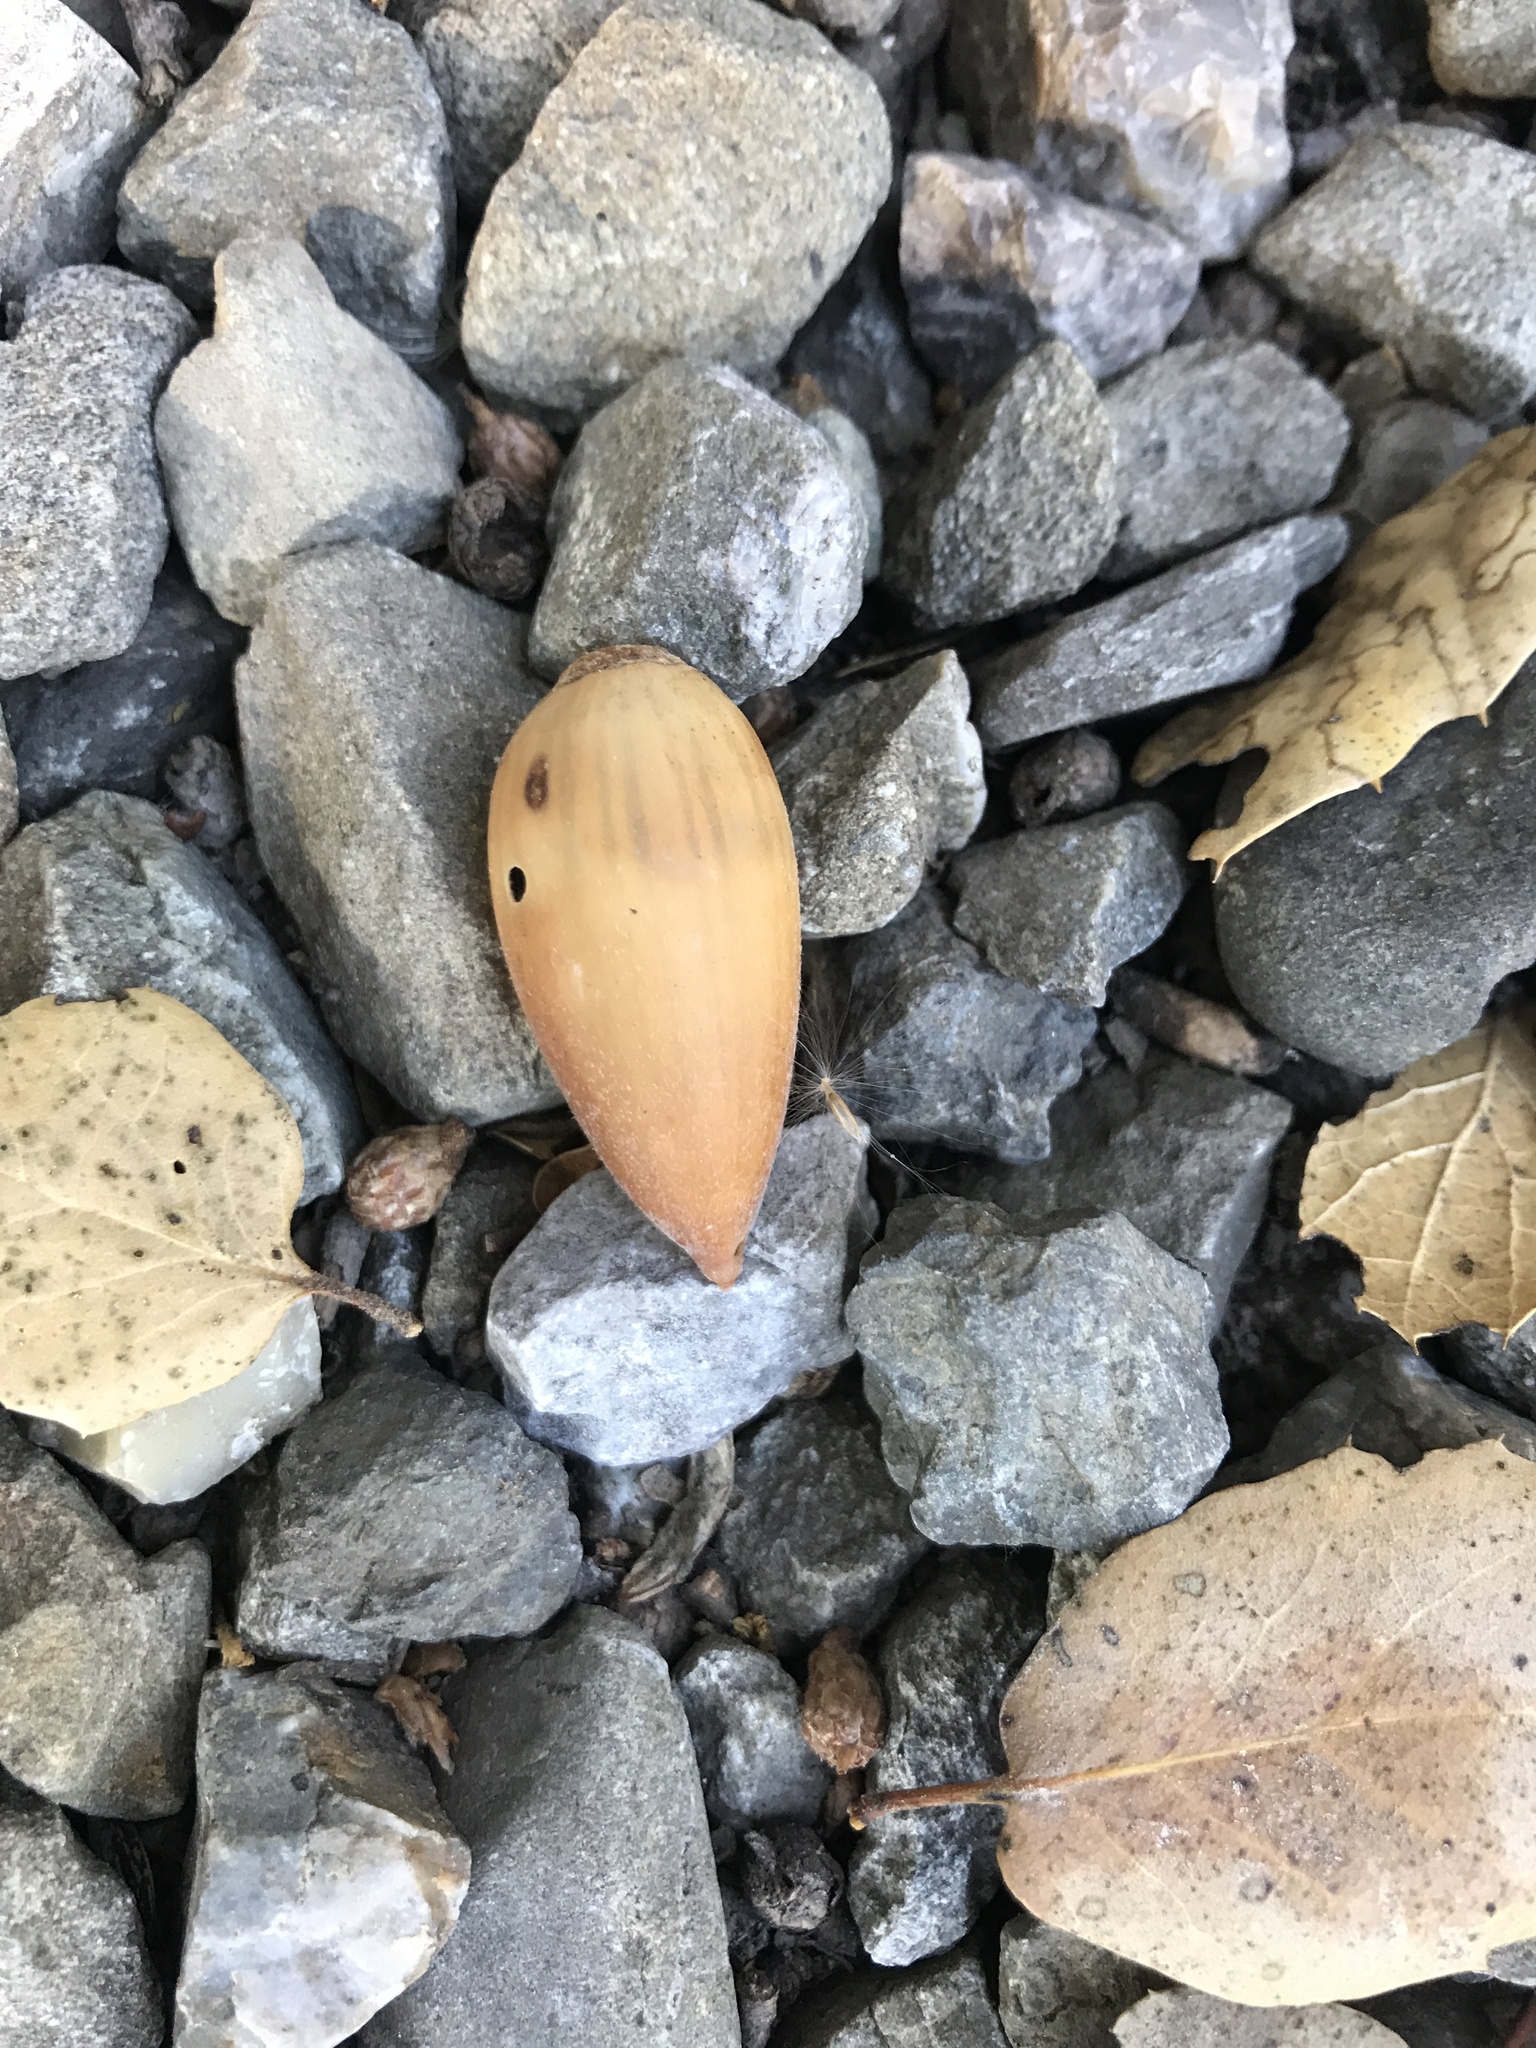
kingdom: Plantae
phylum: Tracheophyta
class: Magnoliopsida
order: Fagales
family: Fagaceae
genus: Quercus
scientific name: Quercus agrifolia
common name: California live oak
